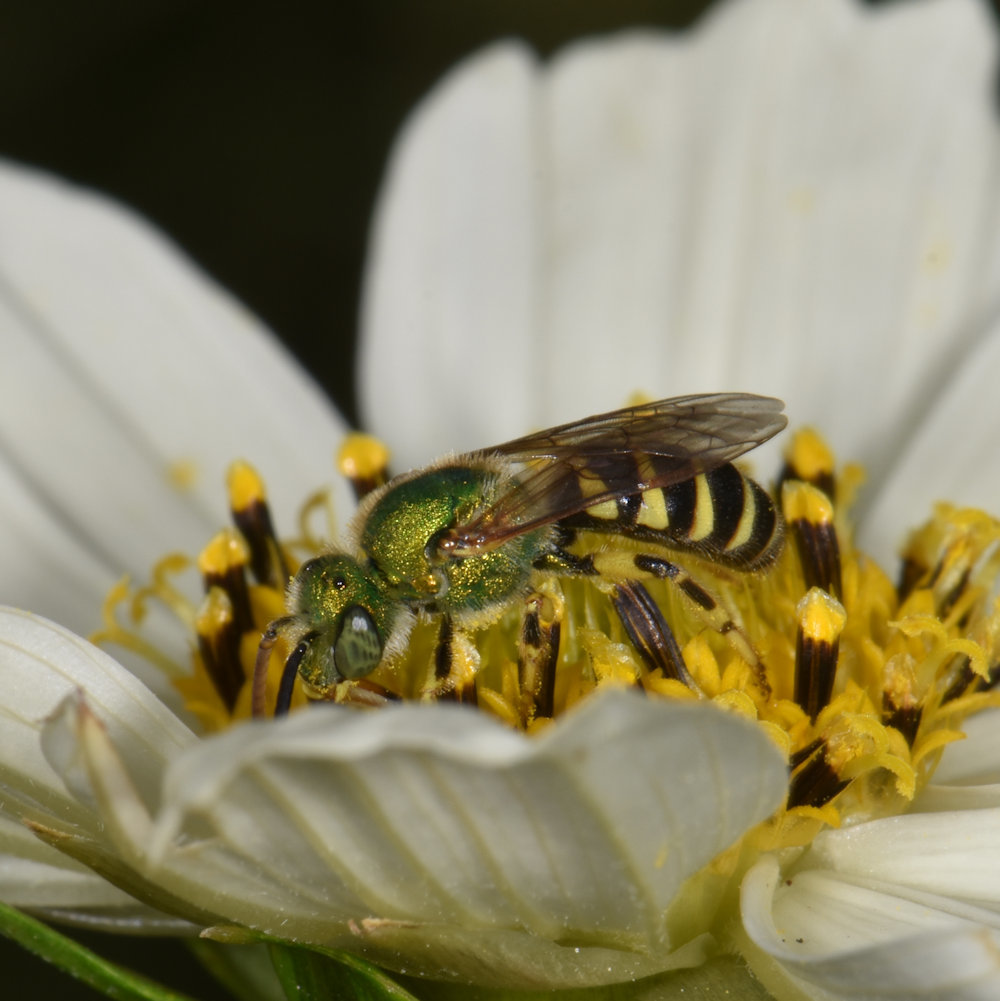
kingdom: Animalia
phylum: Arthropoda
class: Insecta
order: Hymenoptera
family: Halictidae
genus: Agapostemon
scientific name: Agapostemon virescens
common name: Bicolored striped sweat bee
